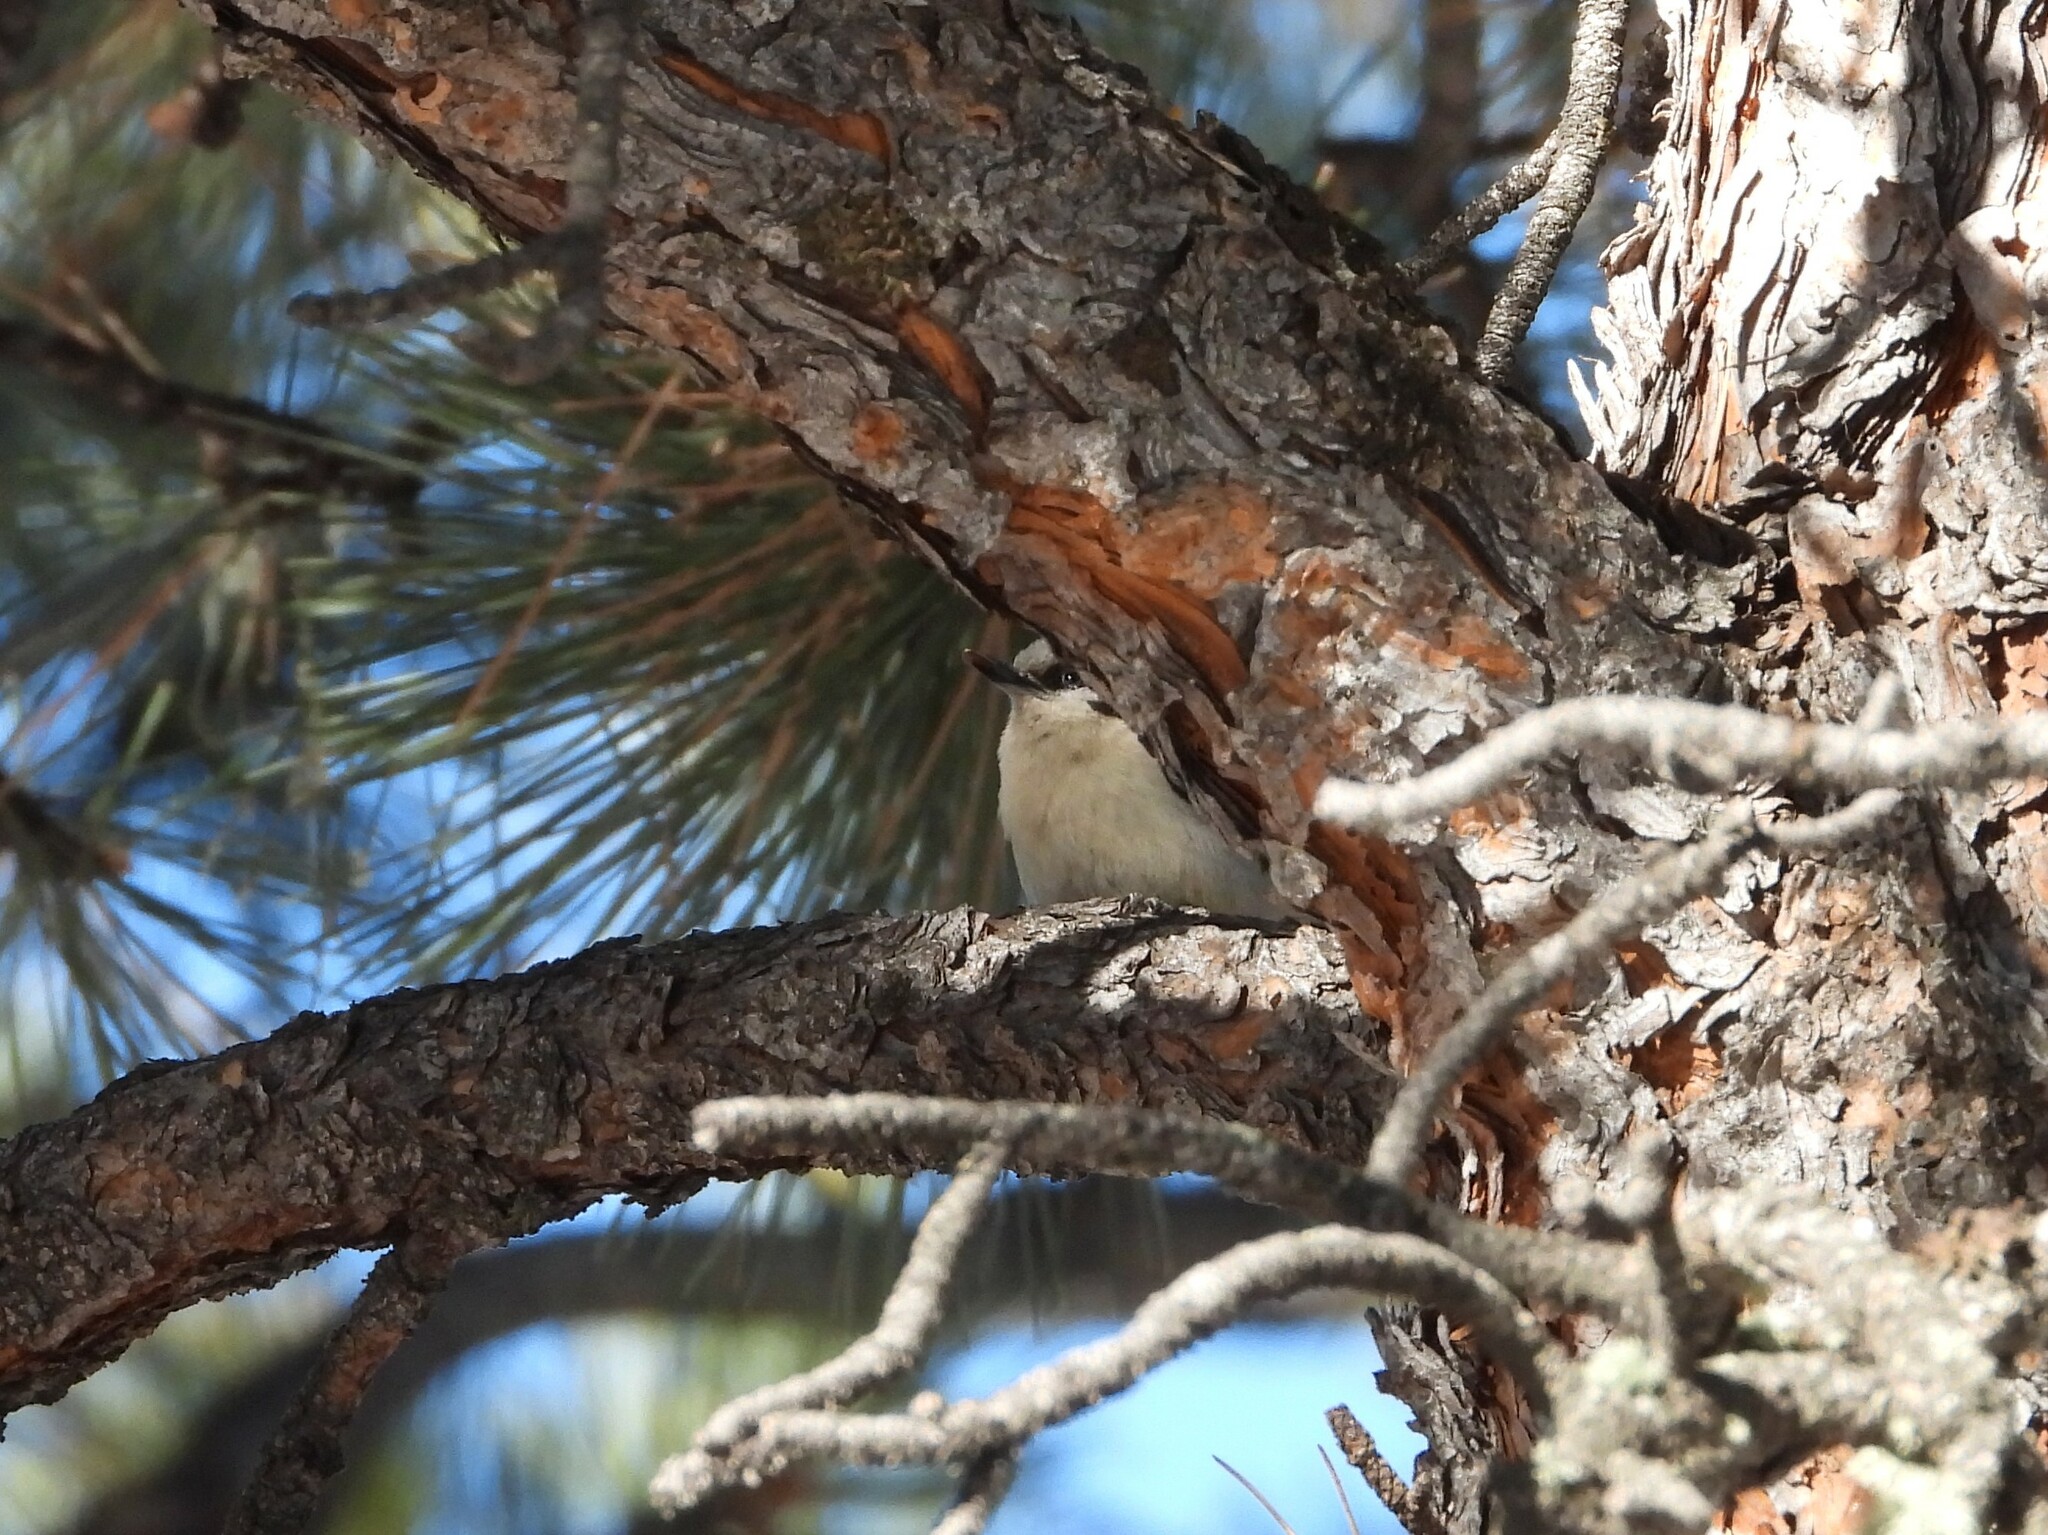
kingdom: Animalia
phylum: Chordata
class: Aves
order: Passeriformes
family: Sittidae
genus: Sitta
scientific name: Sitta pygmaea
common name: Pygmy nuthatch
